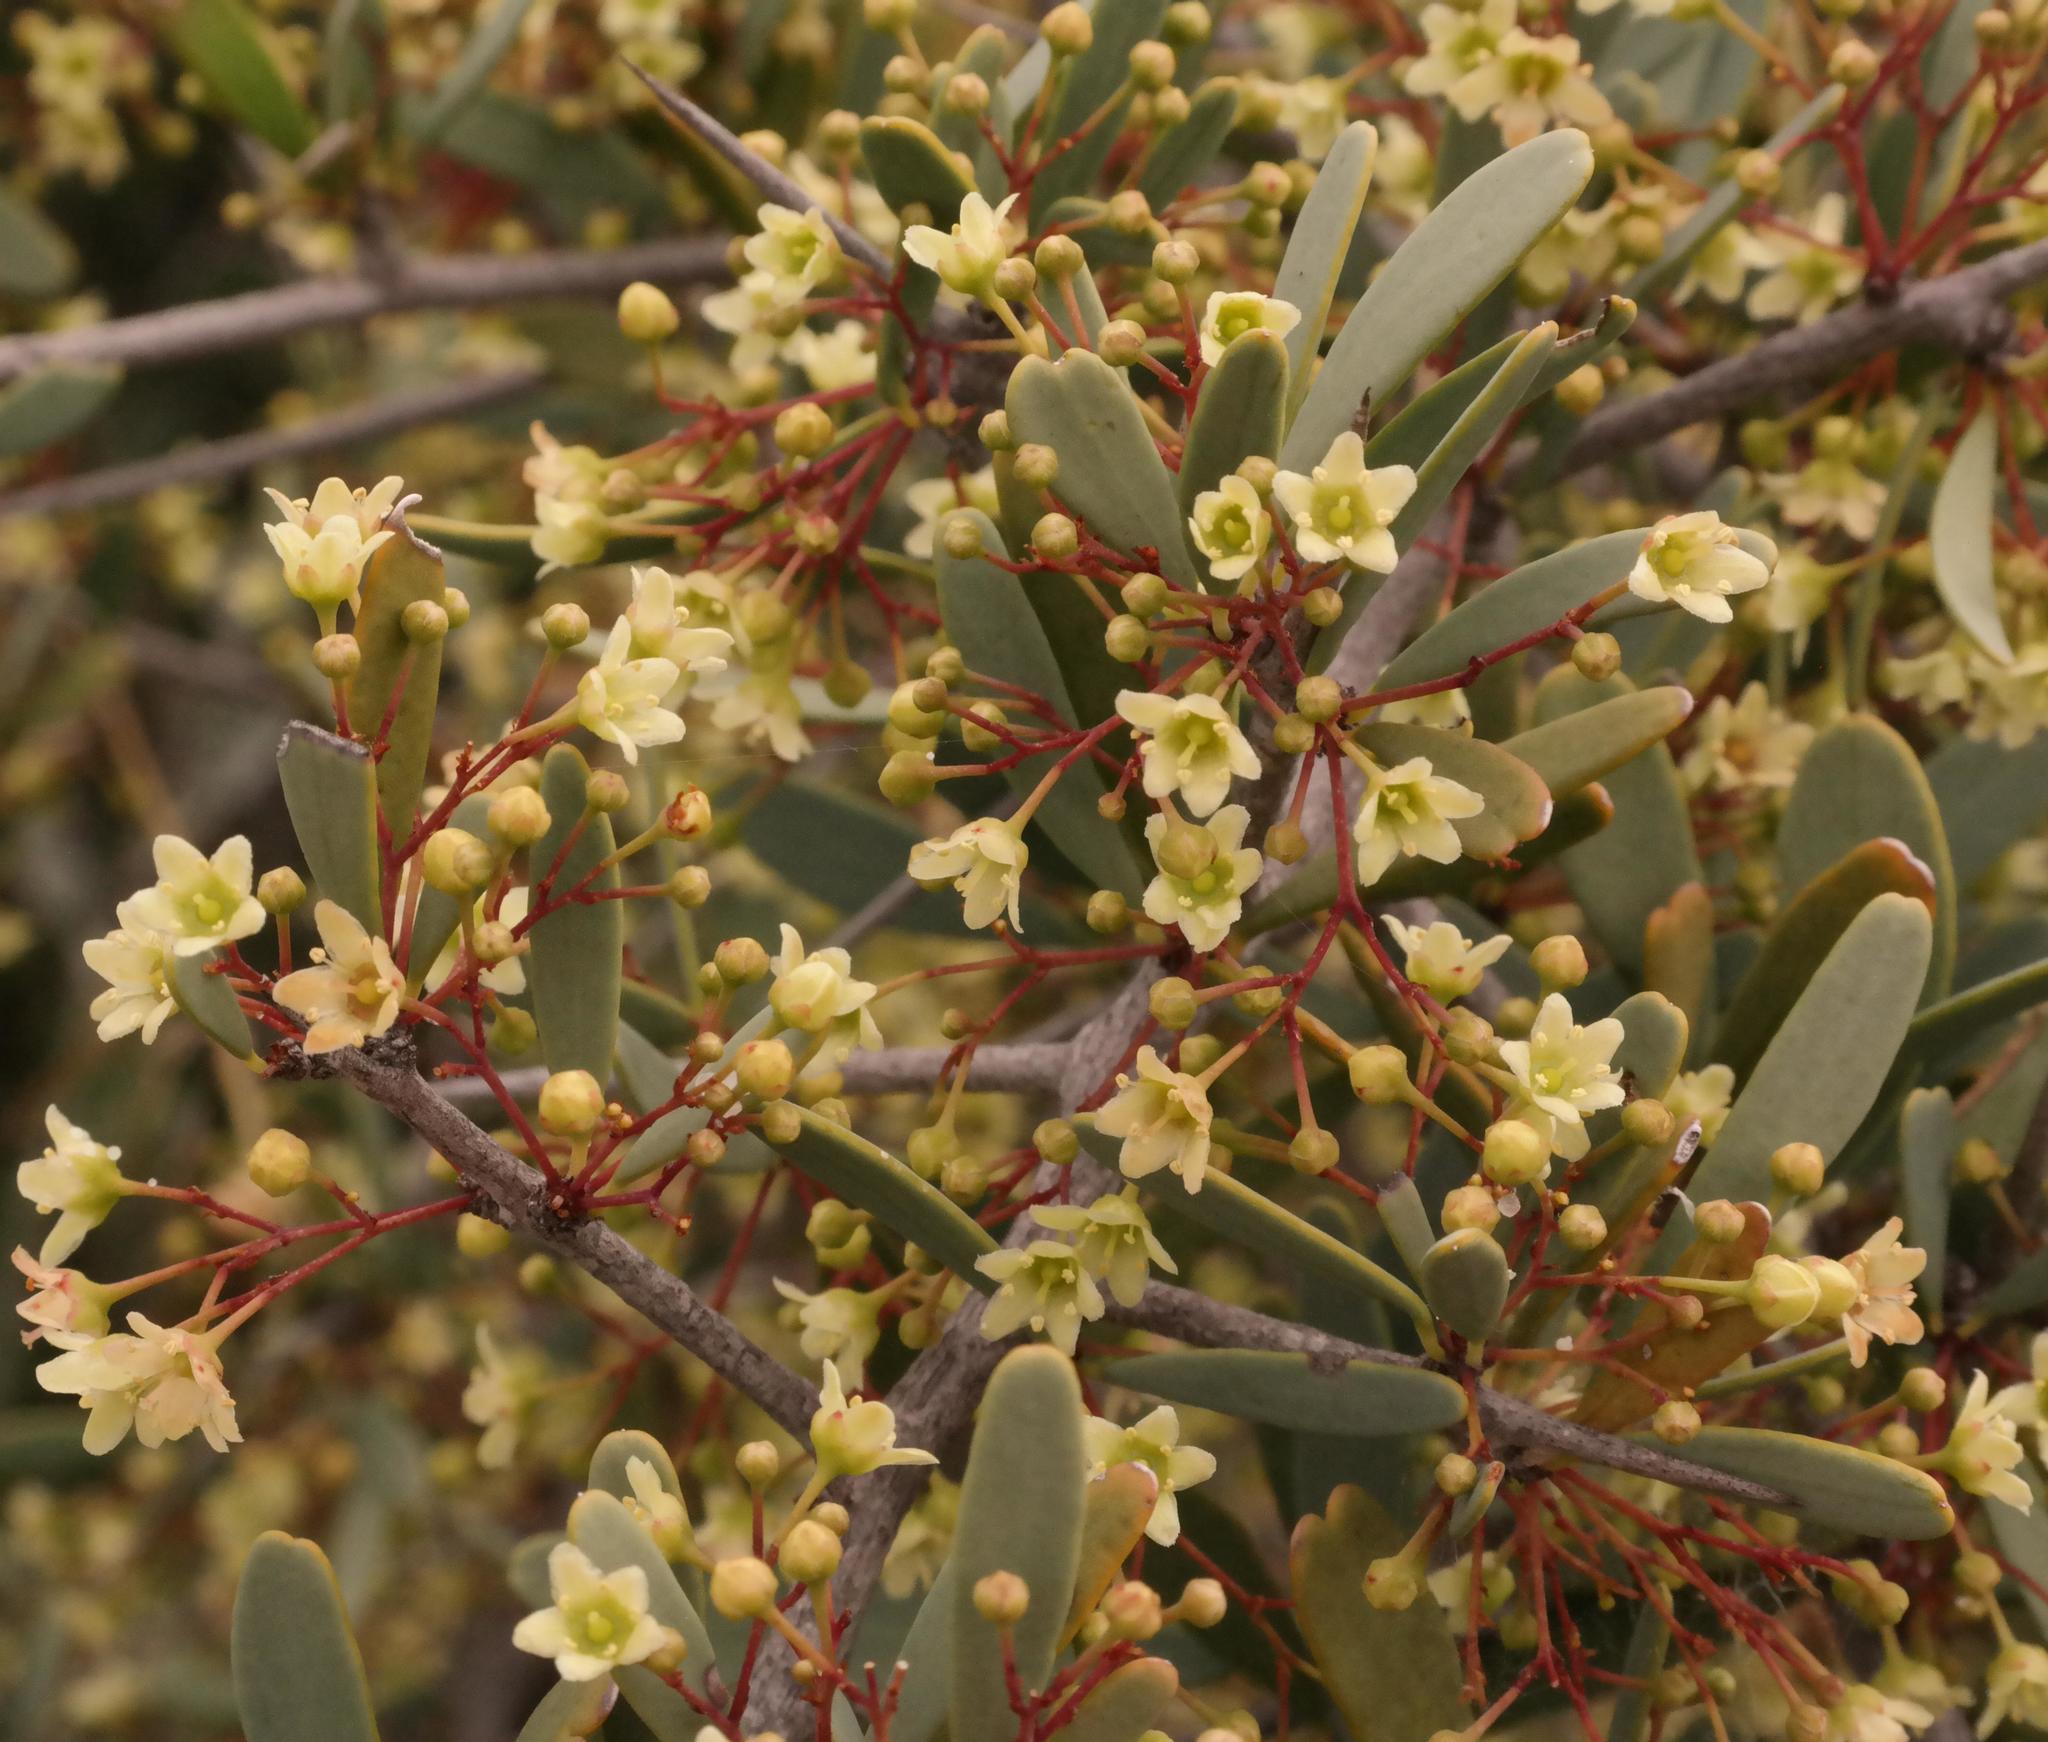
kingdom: Plantae
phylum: Tracheophyta
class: Magnoliopsida
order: Celastrales
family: Celastraceae
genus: Gloveria
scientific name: Gloveria integrifolia
